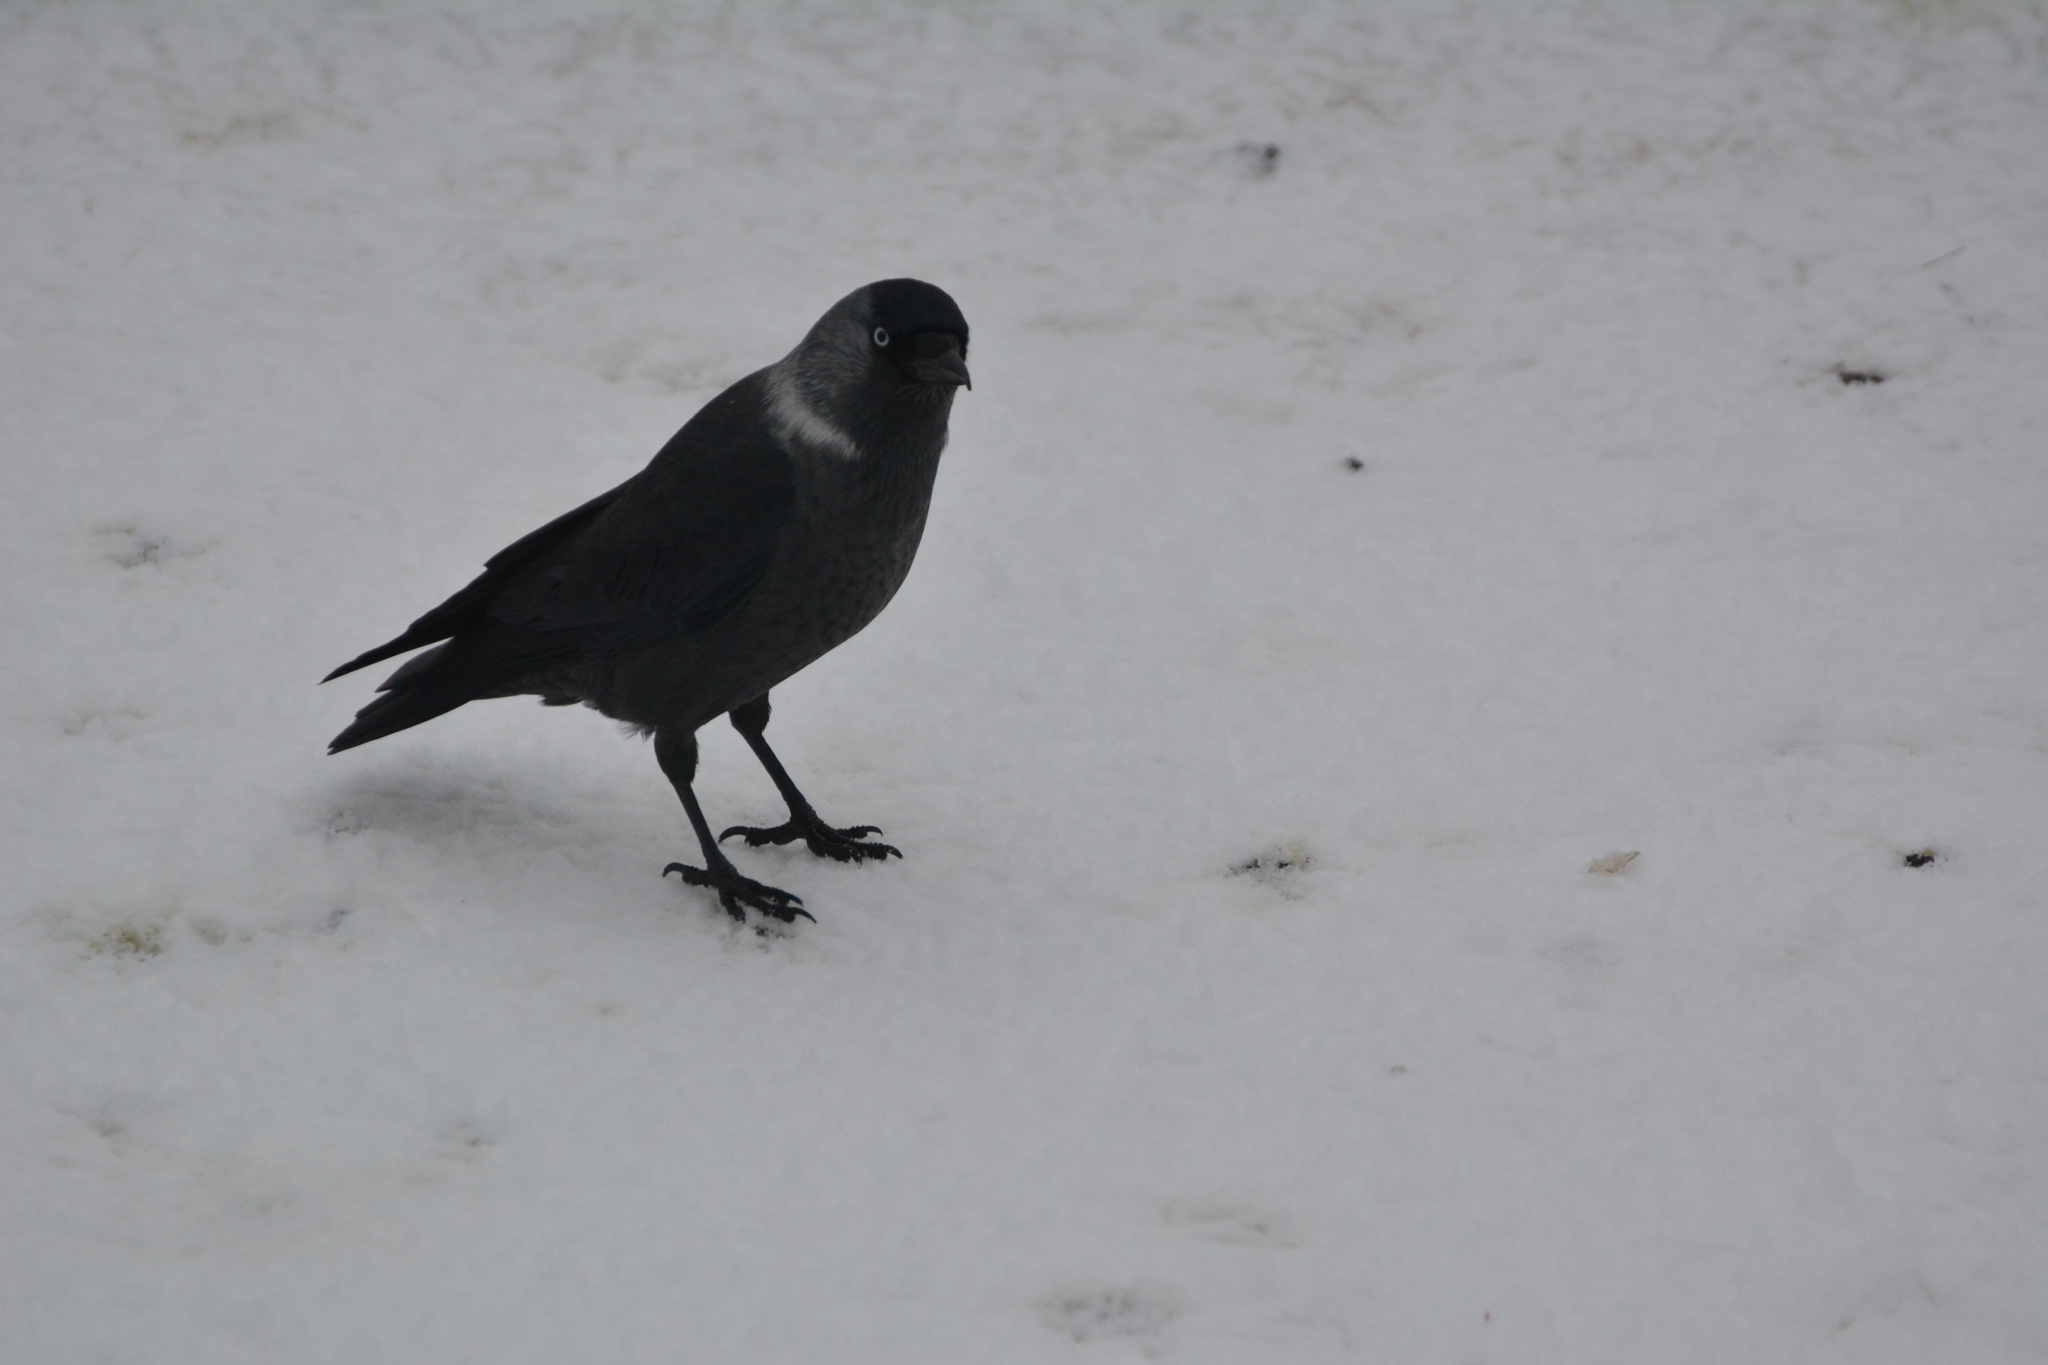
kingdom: Animalia
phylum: Chordata
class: Aves
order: Passeriformes
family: Corvidae
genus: Coloeus
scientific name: Coloeus monedula
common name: Western jackdaw
